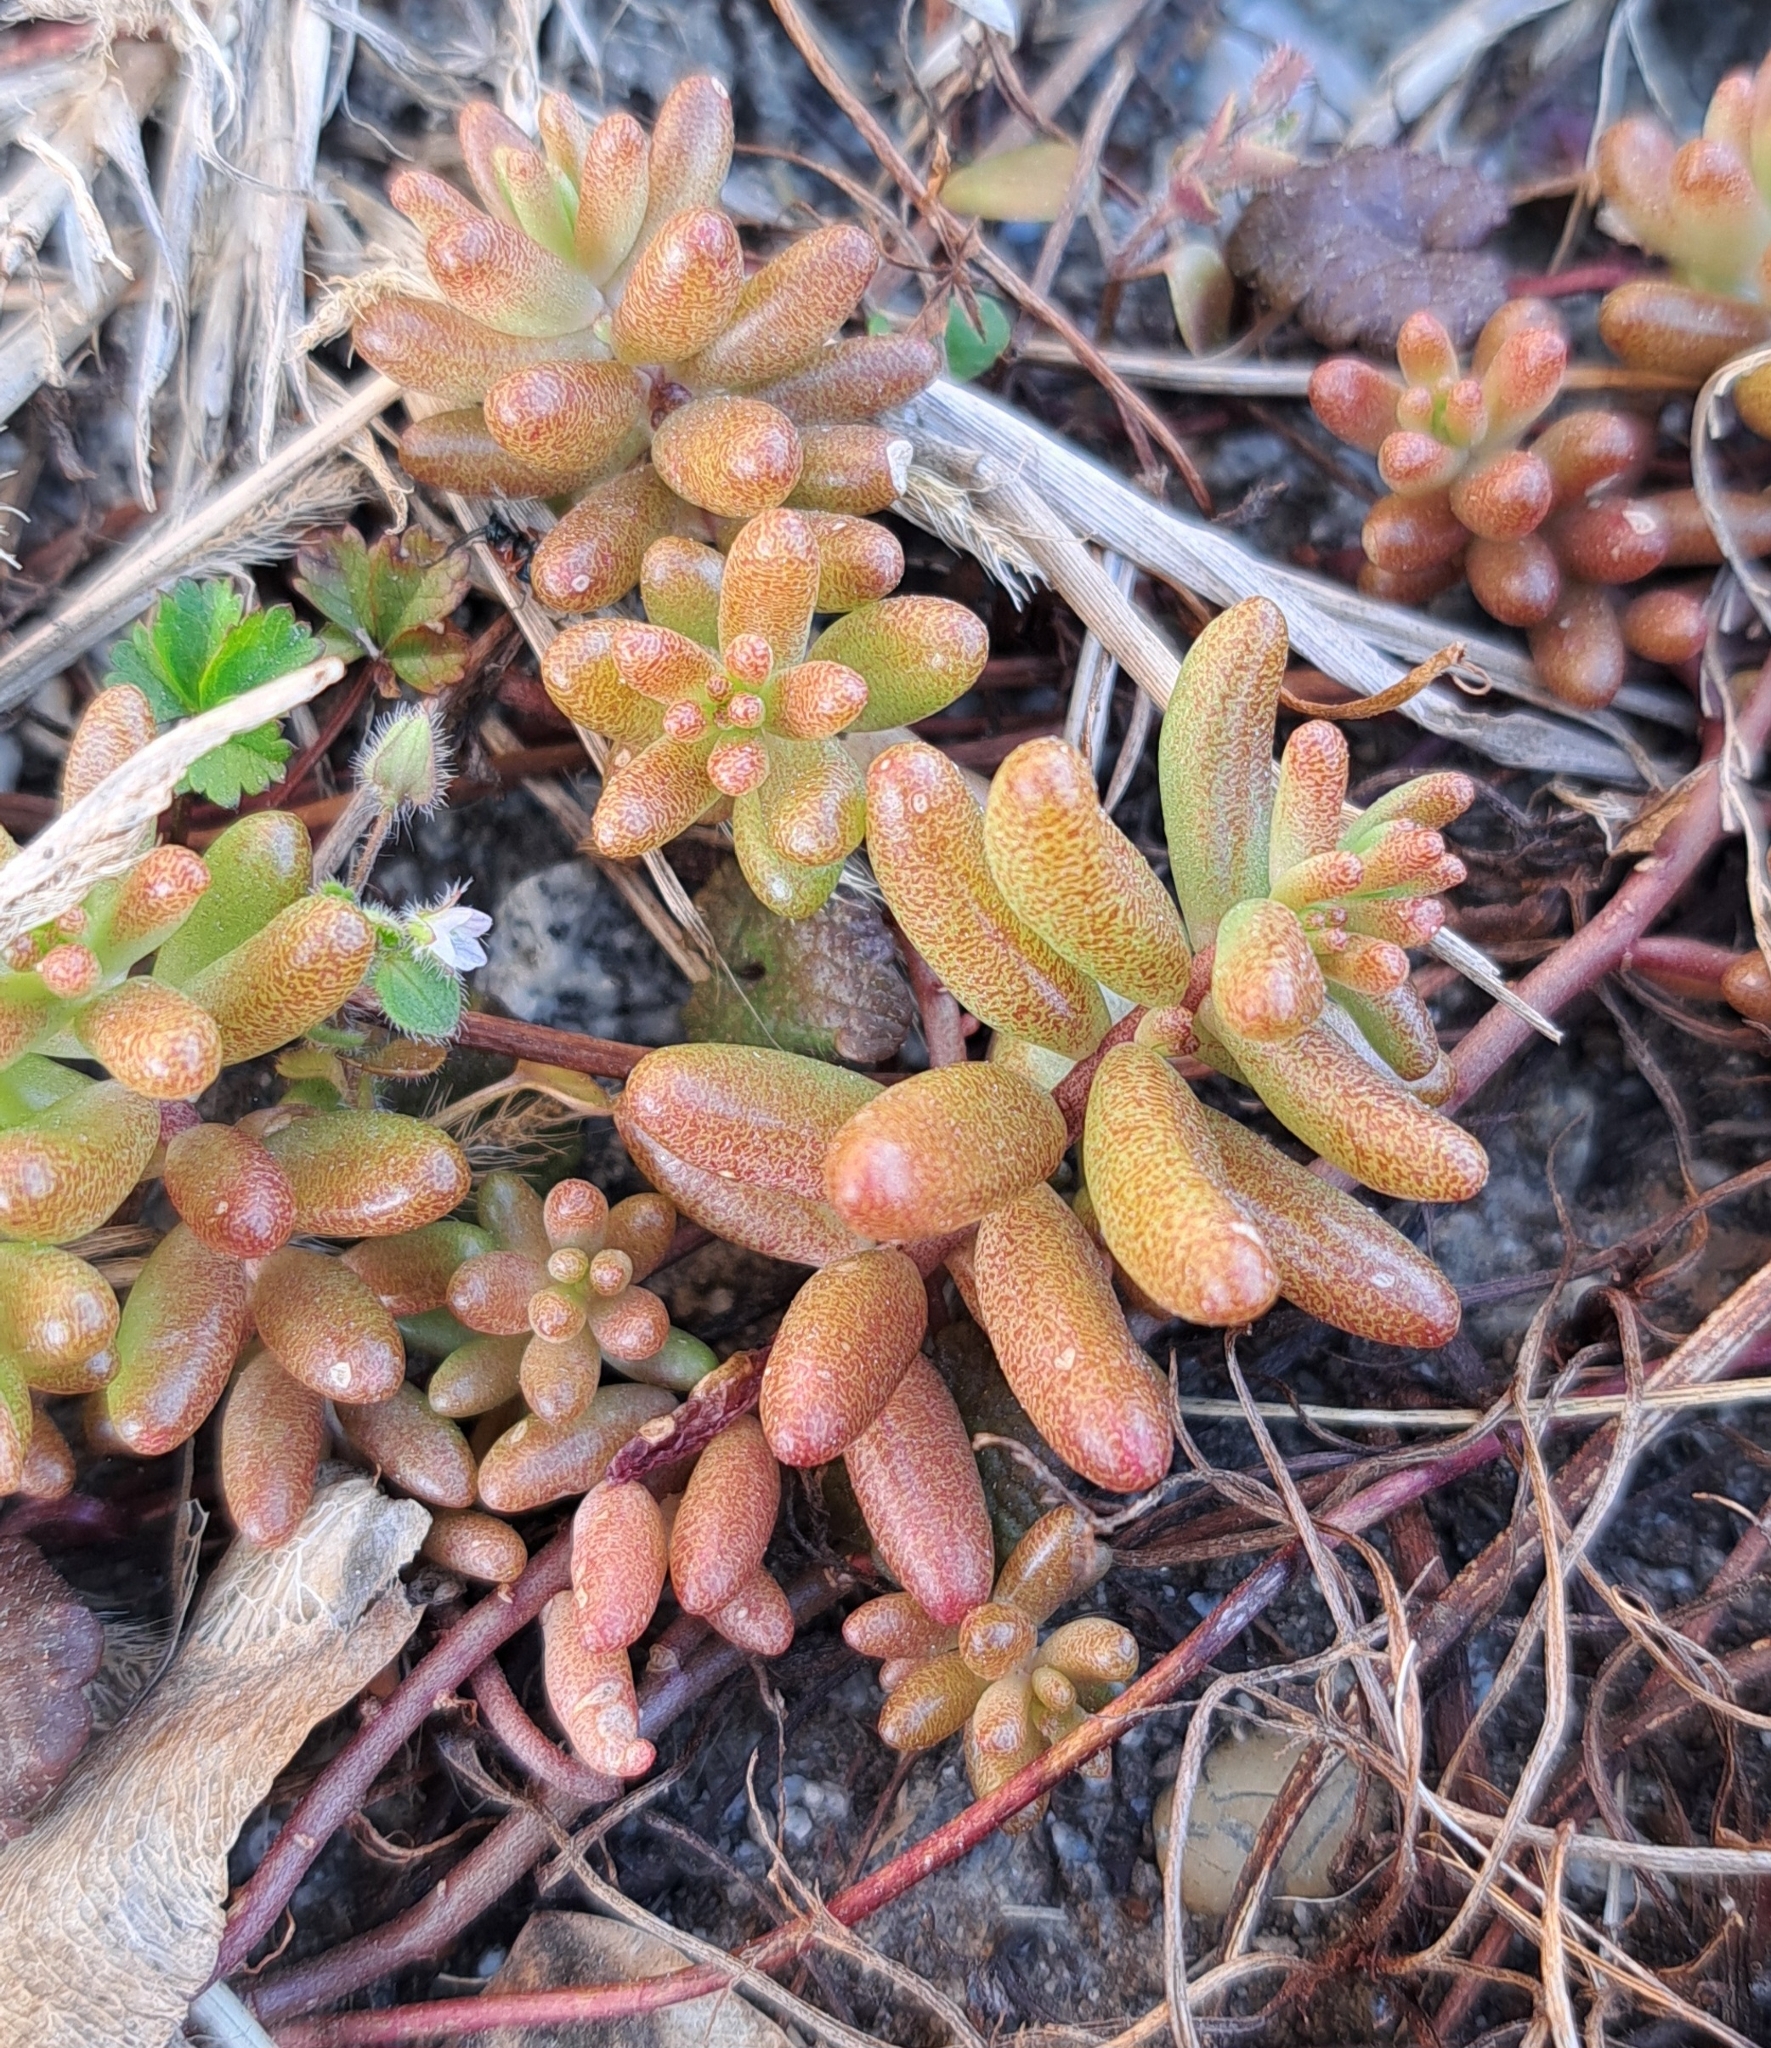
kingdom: Plantae
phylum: Tracheophyta
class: Magnoliopsida
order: Saxifragales
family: Crassulaceae
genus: Sedum
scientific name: Sedum album
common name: White stonecrop
